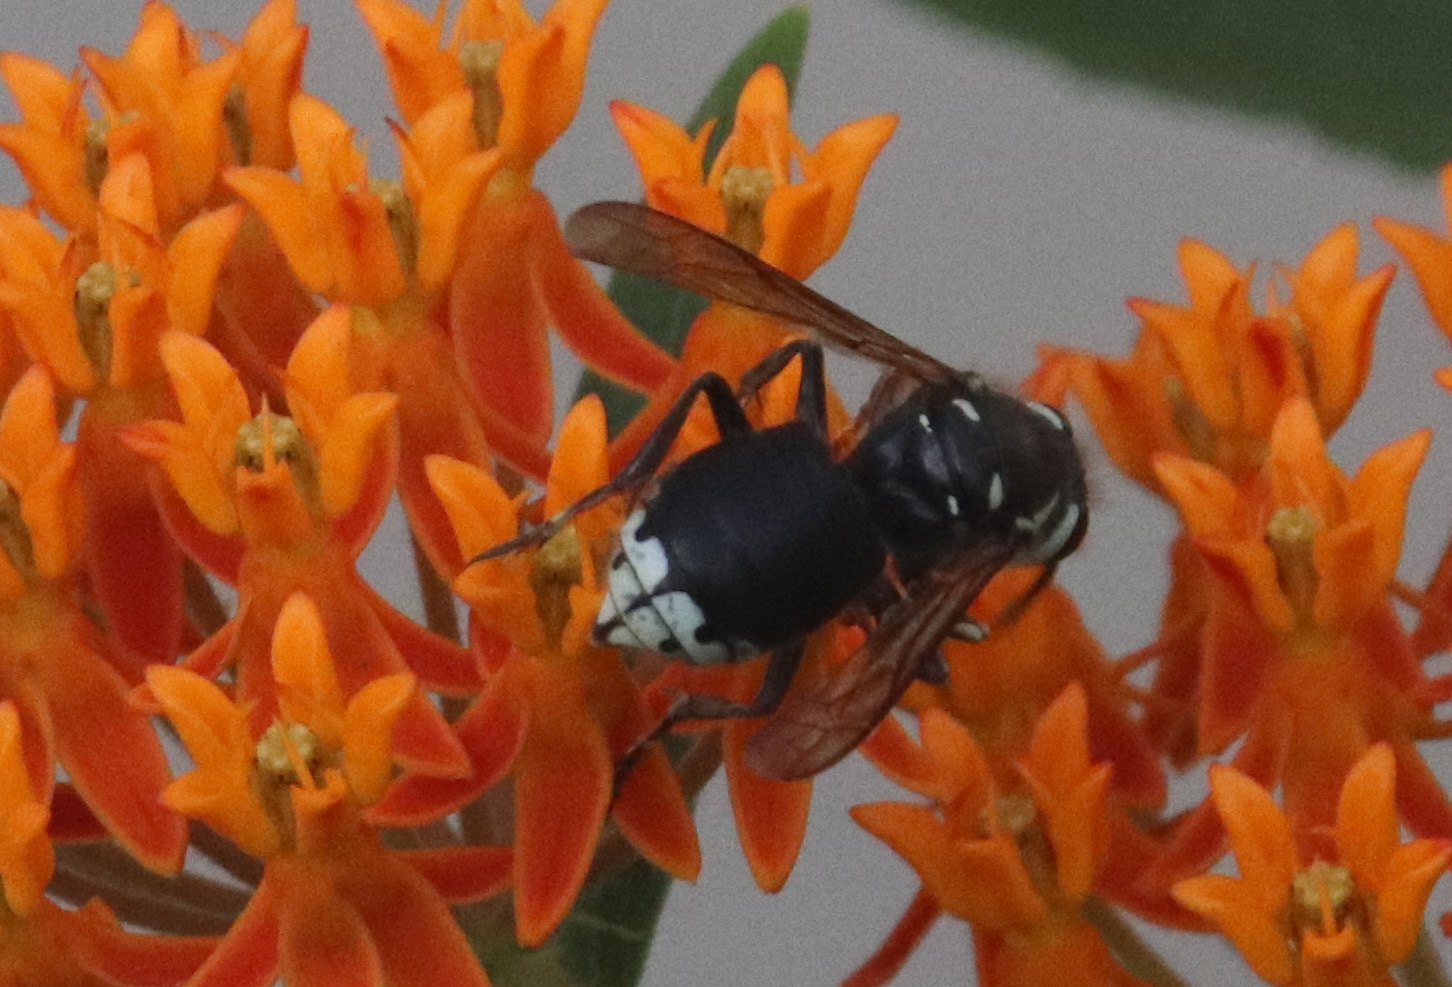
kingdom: Animalia
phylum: Arthropoda
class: Insecta
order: Hymenoptera
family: Vespidae
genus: Dolichovespula
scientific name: Dolichovespula maculata
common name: Bald-faced hornet
